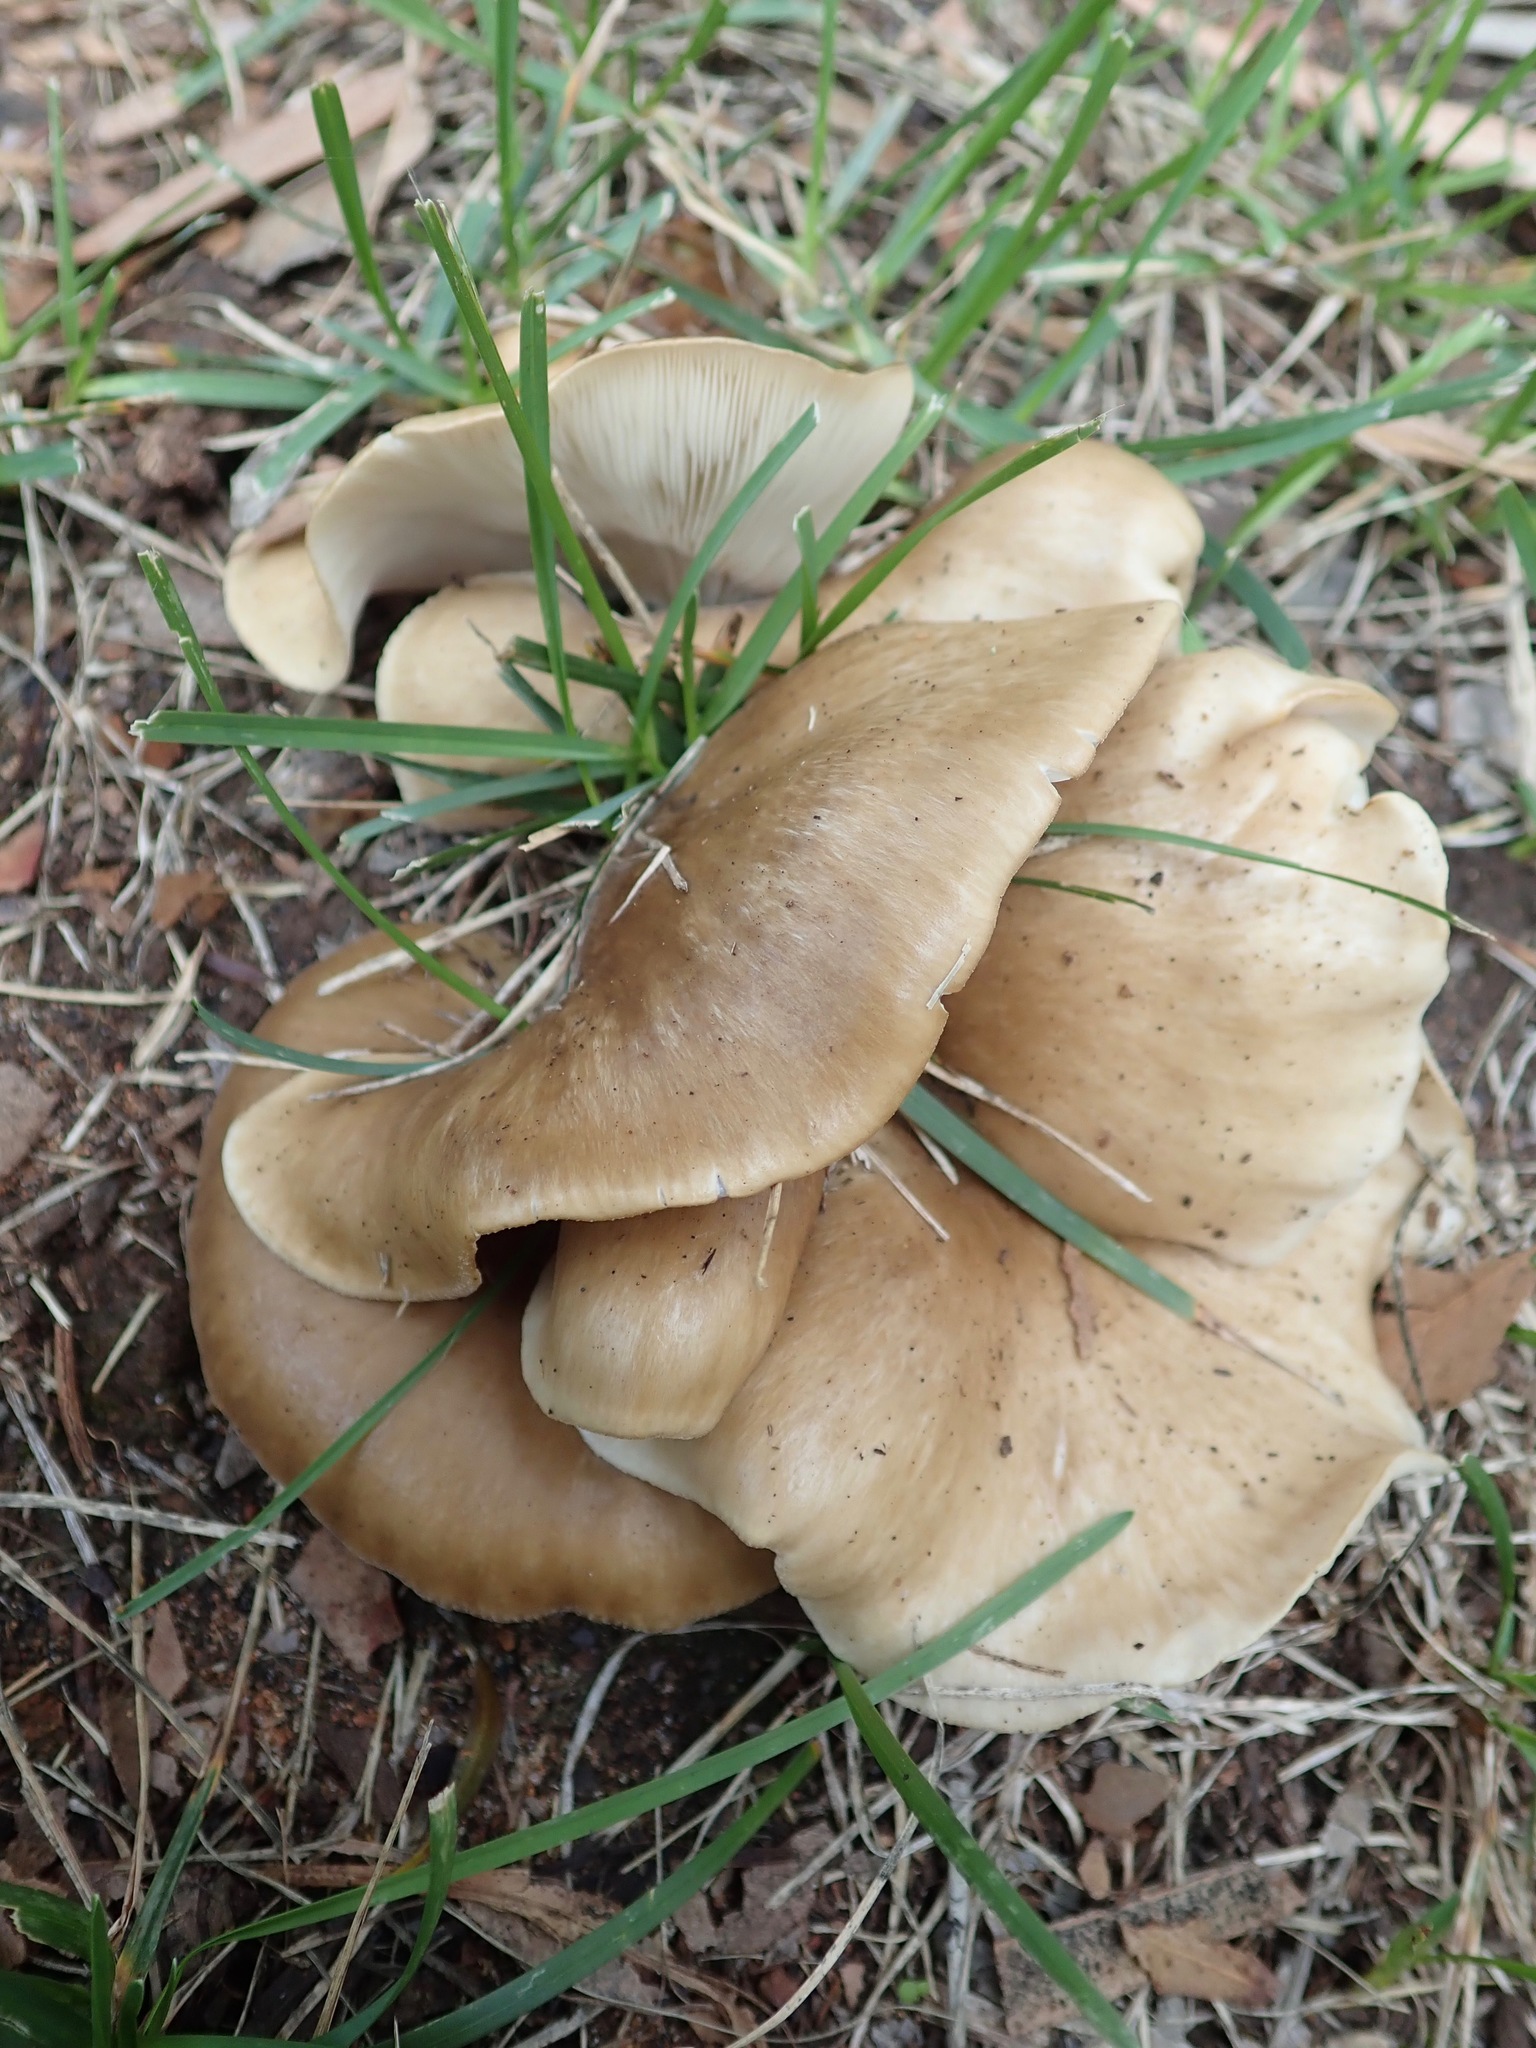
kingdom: Fungi
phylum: Basidiomycota
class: Agaricomycetes
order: Agaricales
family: Pleurotaceae
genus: Hohenbuehelia
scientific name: Hohenbuehelia petaloides
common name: Shoehorn oyster
